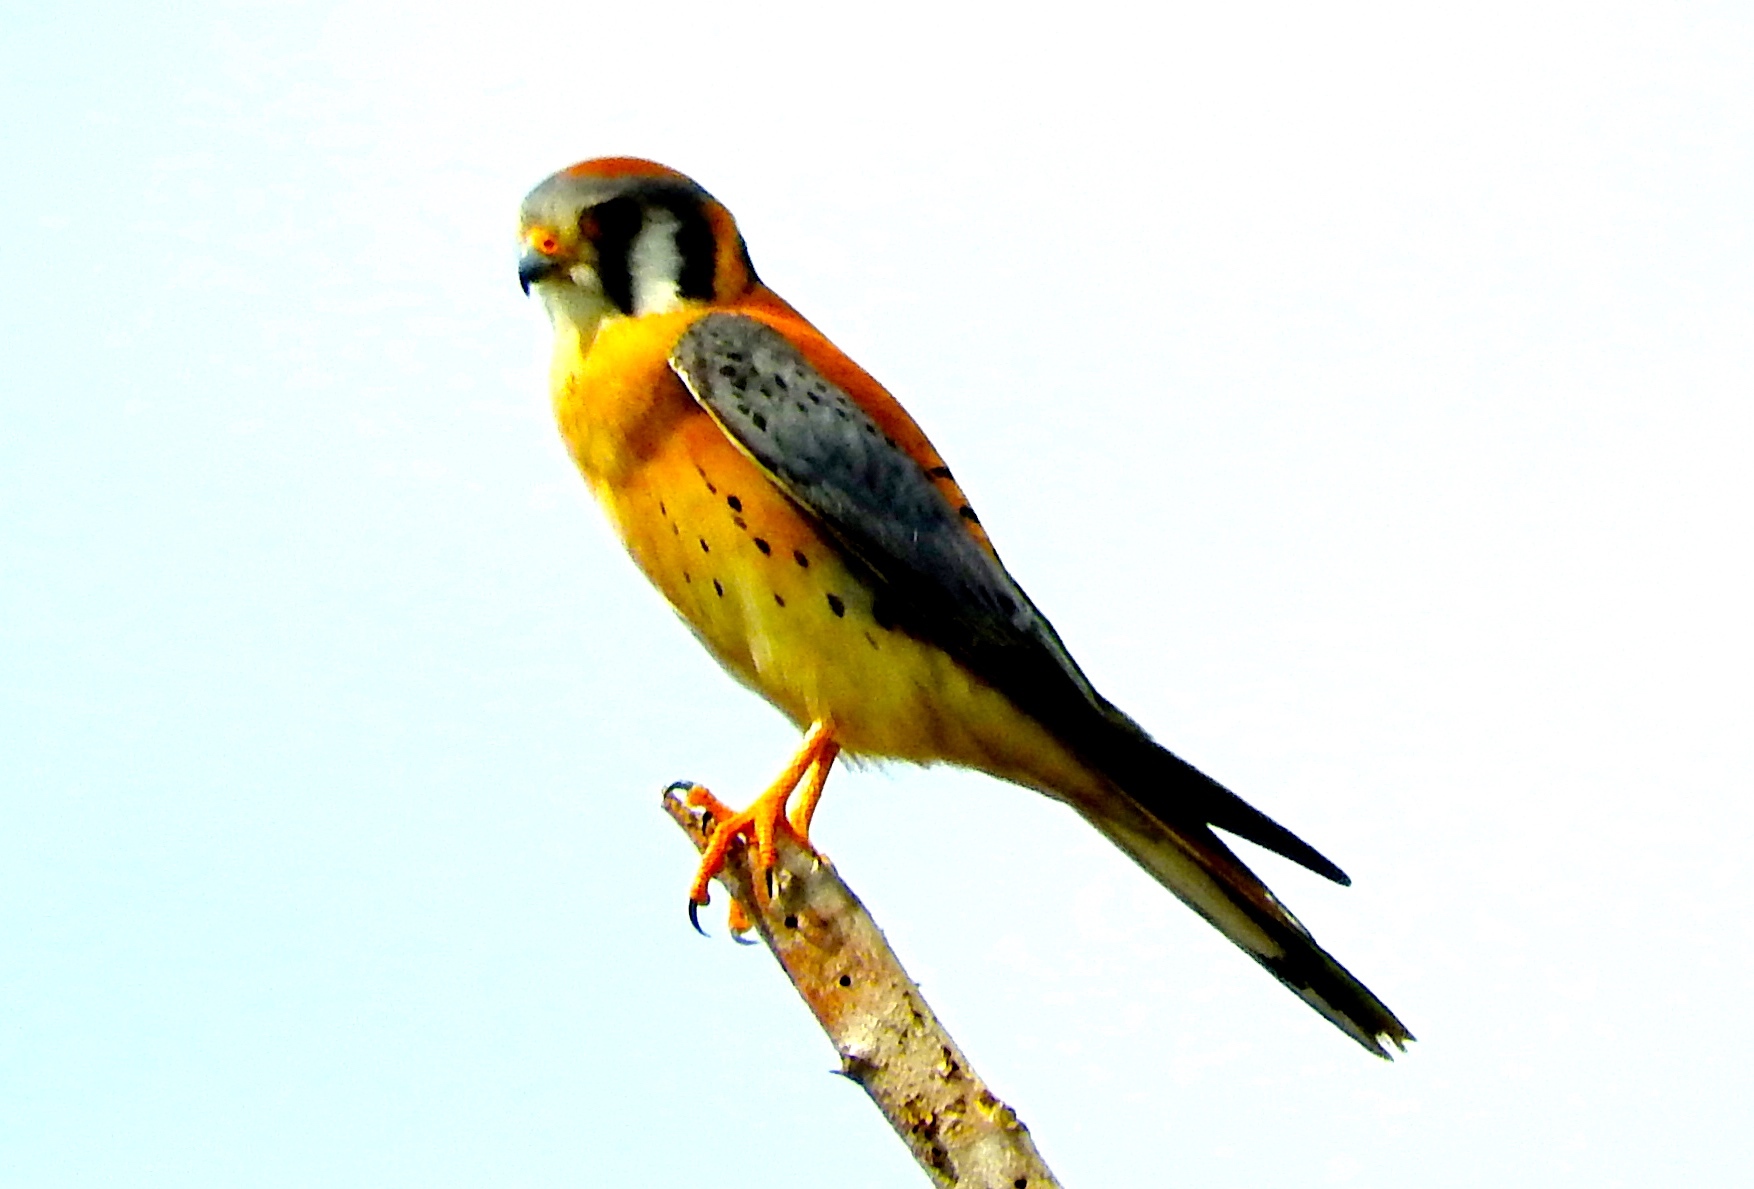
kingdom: Animalia
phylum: Chordata
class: Aves
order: Falconiformes
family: Falconidae
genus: Falco
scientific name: Falco sparverius
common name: American kestrel
